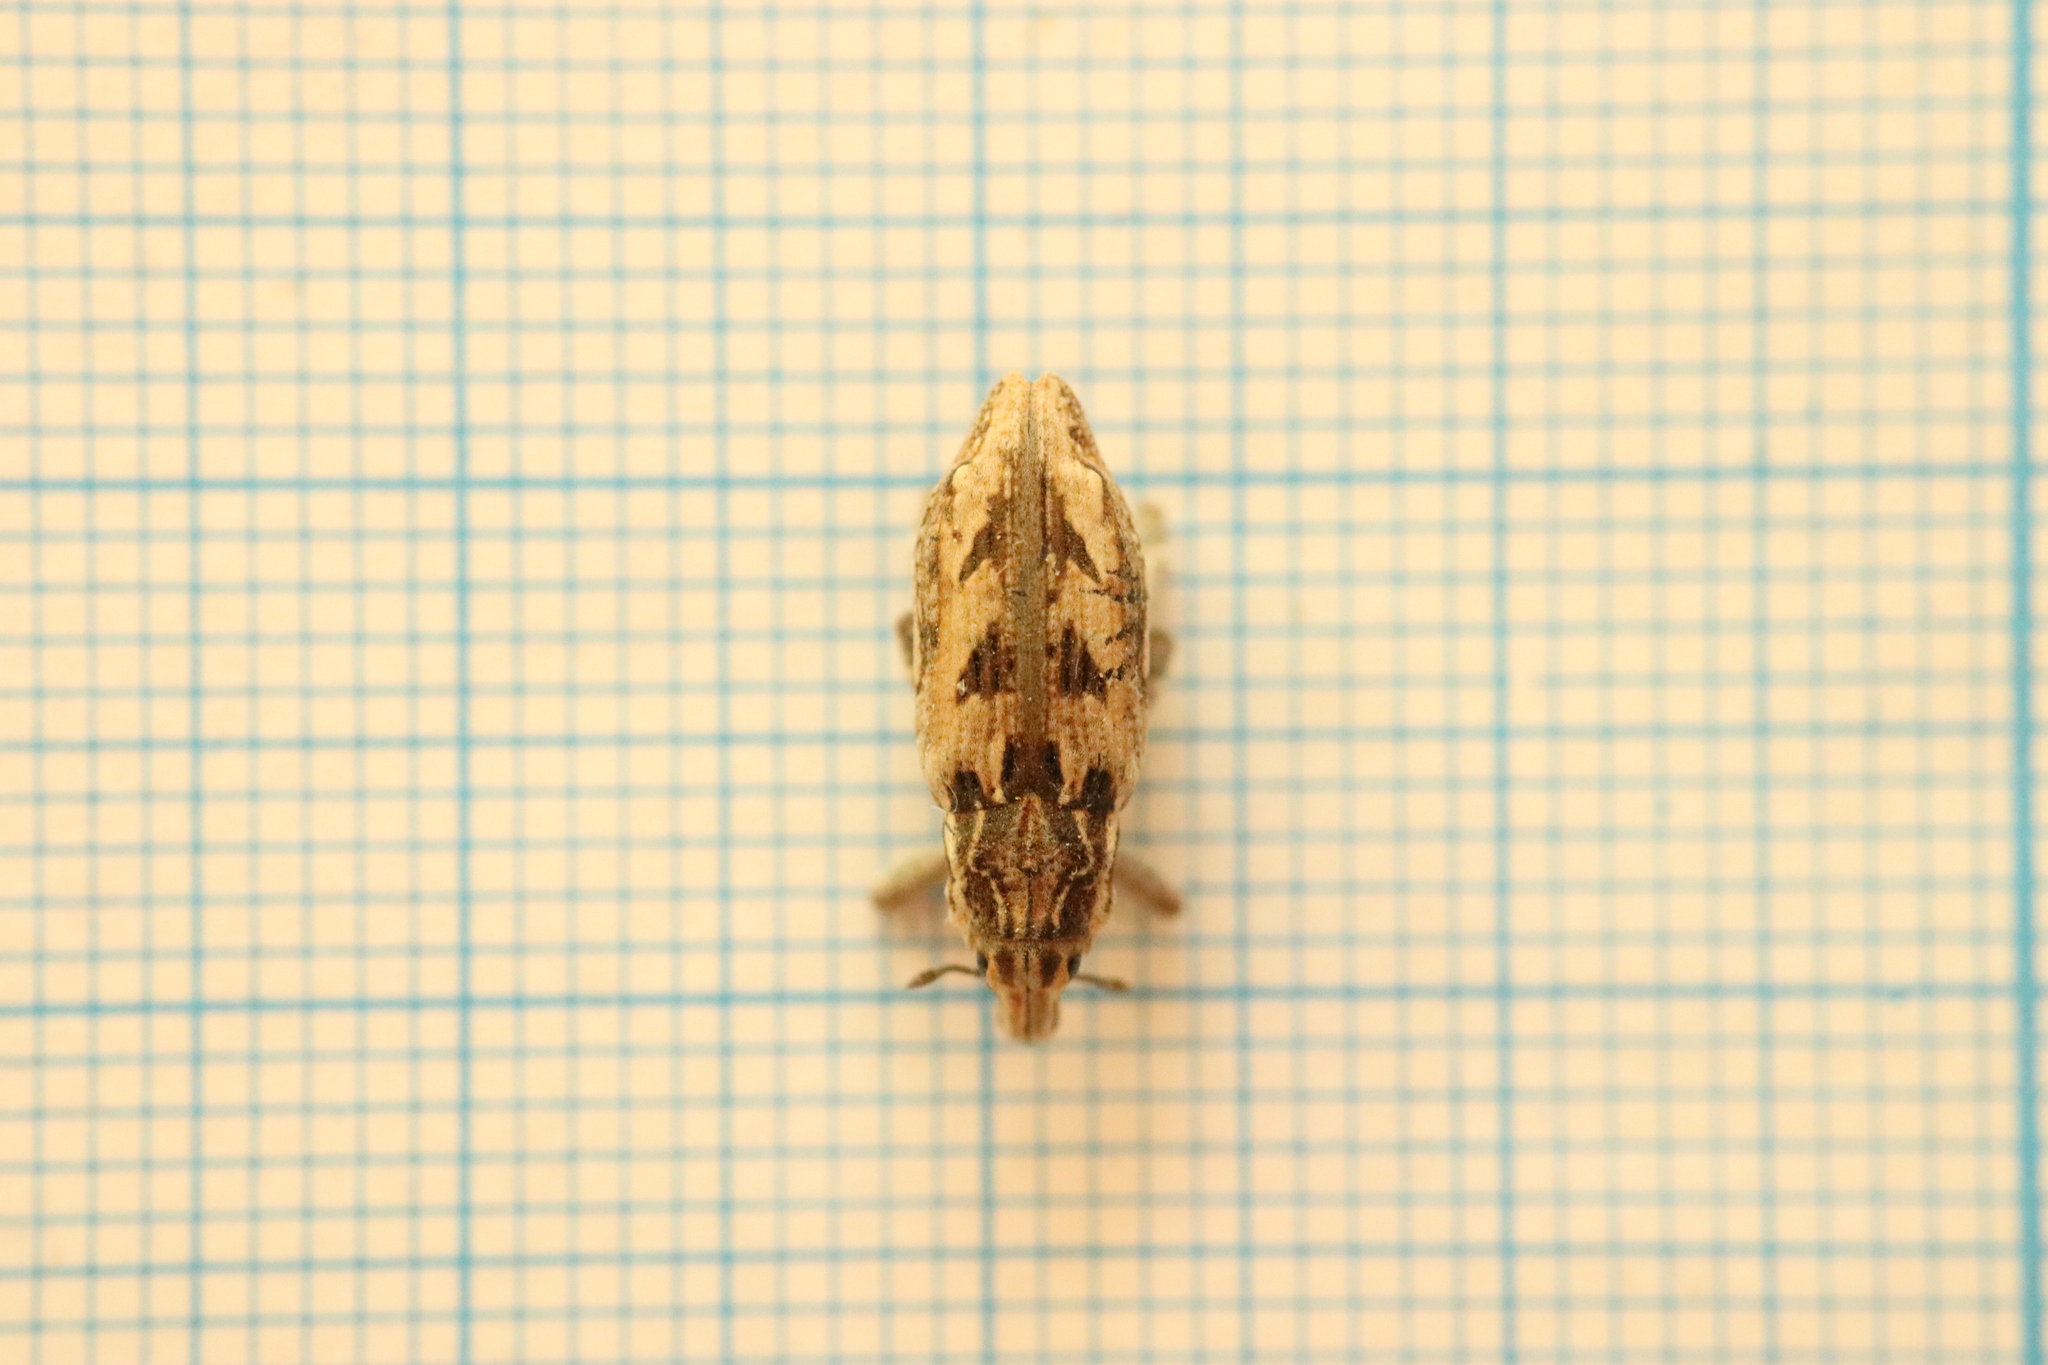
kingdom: Animalia
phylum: Arthropoda
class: Insecta
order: Coleoptera
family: Curculionidae
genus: Coniocleonus
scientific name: Coniocleonus excoriatus
